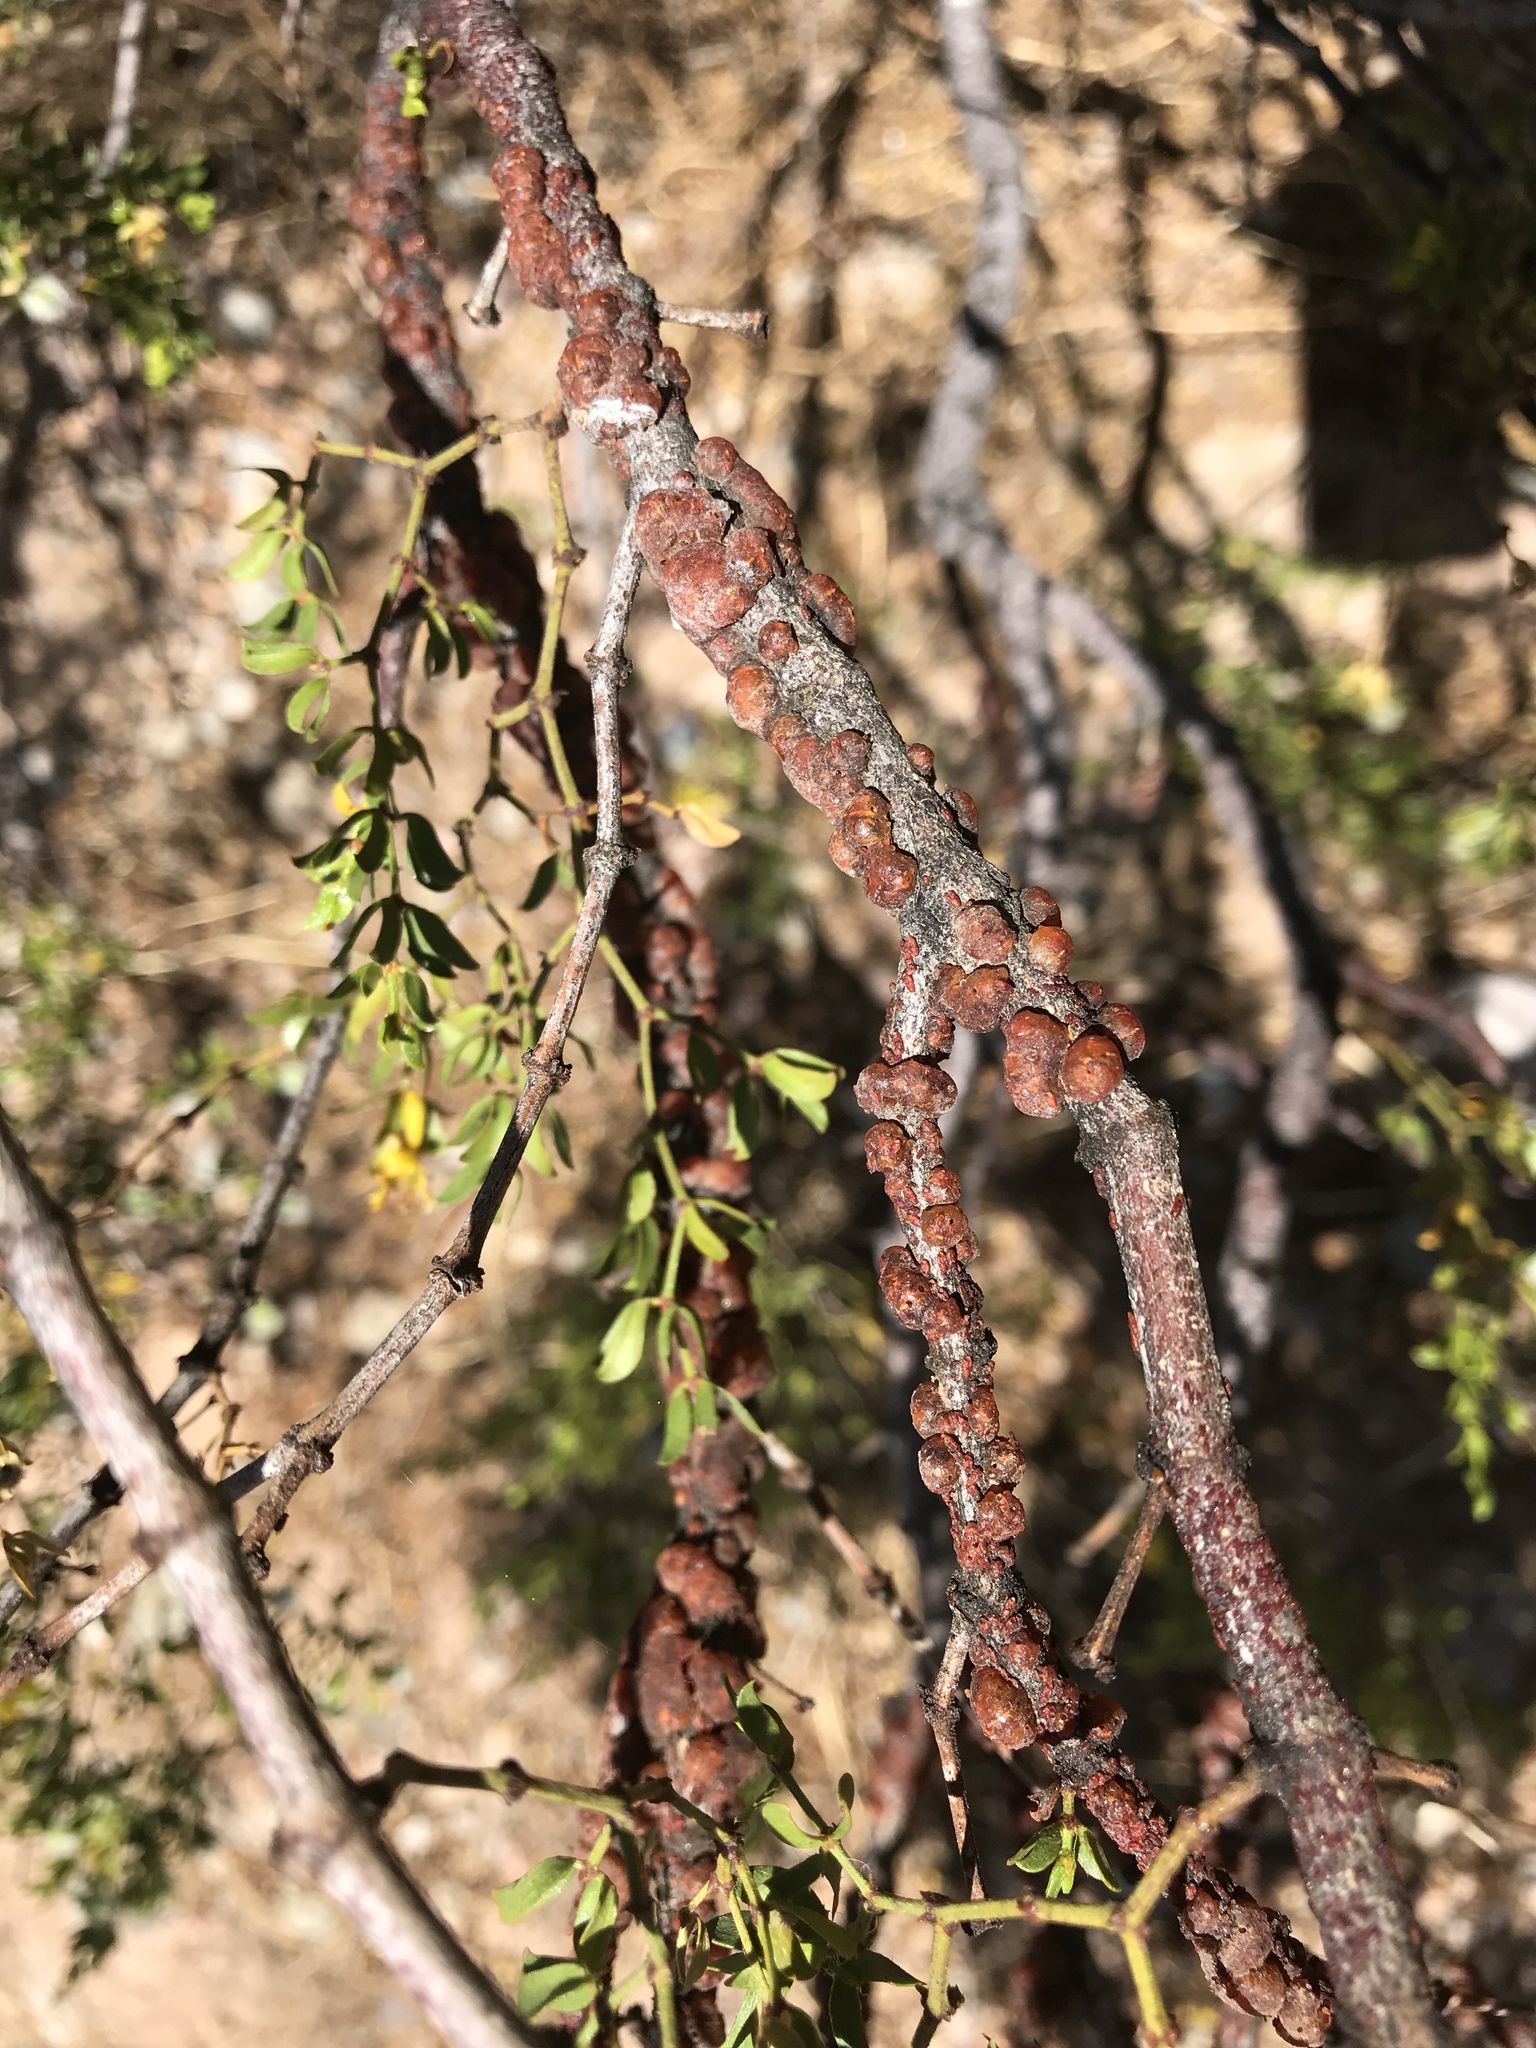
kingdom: Animalia
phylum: Arthropoda
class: Insecta
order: Hemiptera
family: Kerriidae
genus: Tachardiella
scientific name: Tachardiella larreae
